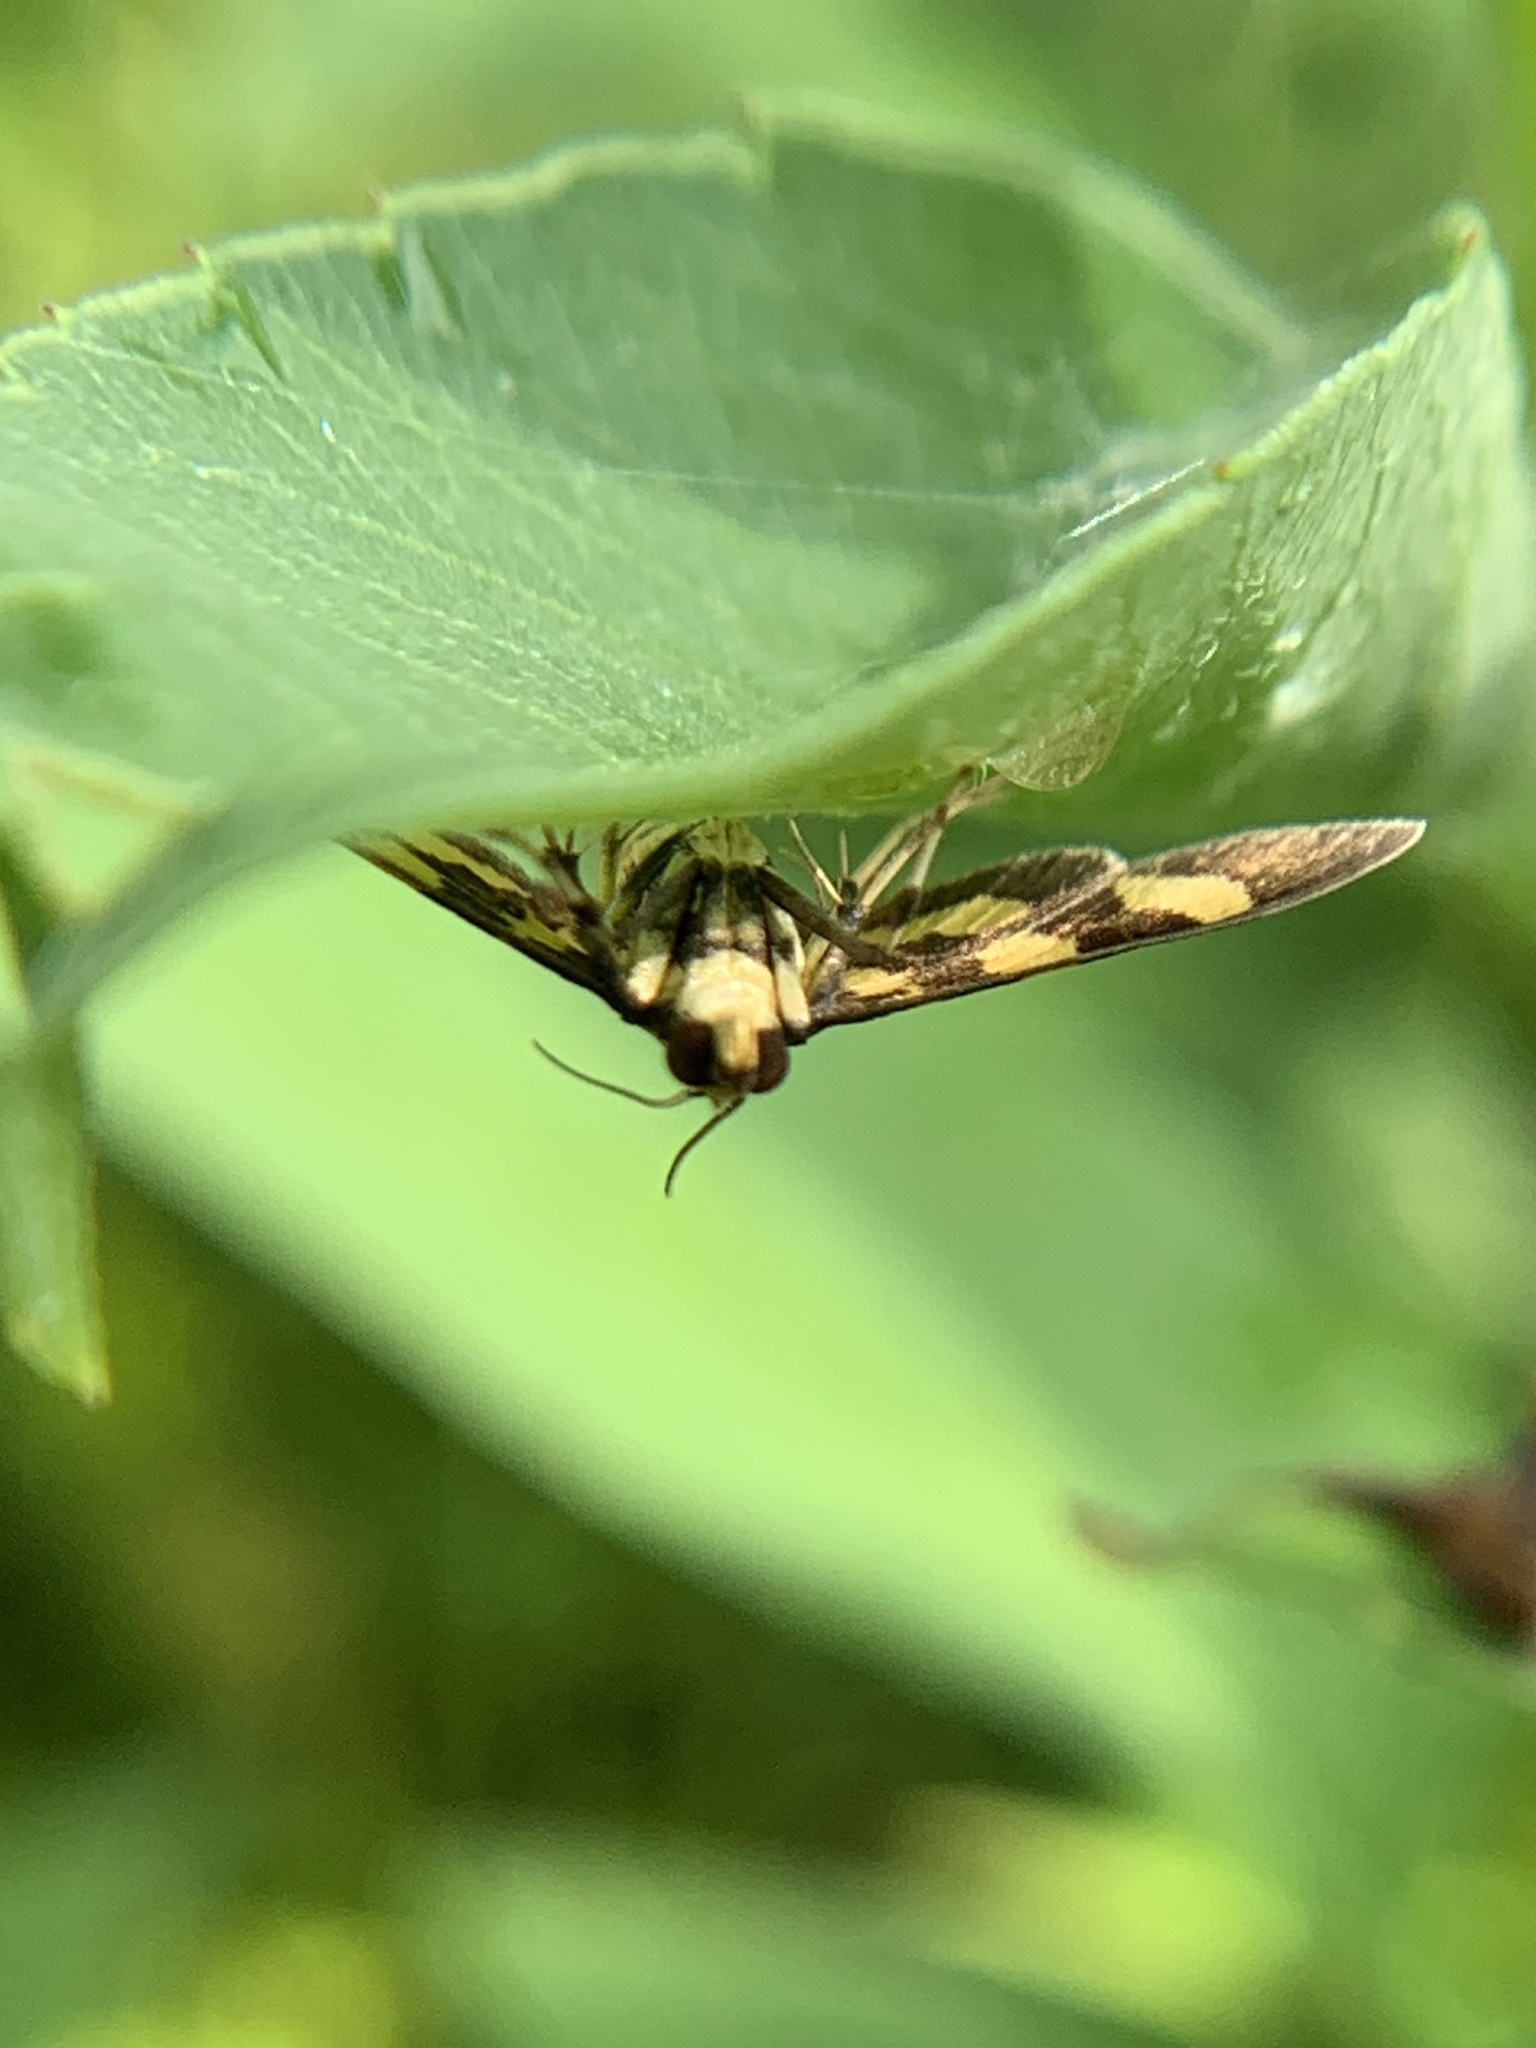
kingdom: Animalia
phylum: Arthropoda
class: Insecta
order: Lepidoptera
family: Crambidae
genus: Syngamia
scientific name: Syngamia florella
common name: Orange-spotted flower moth
